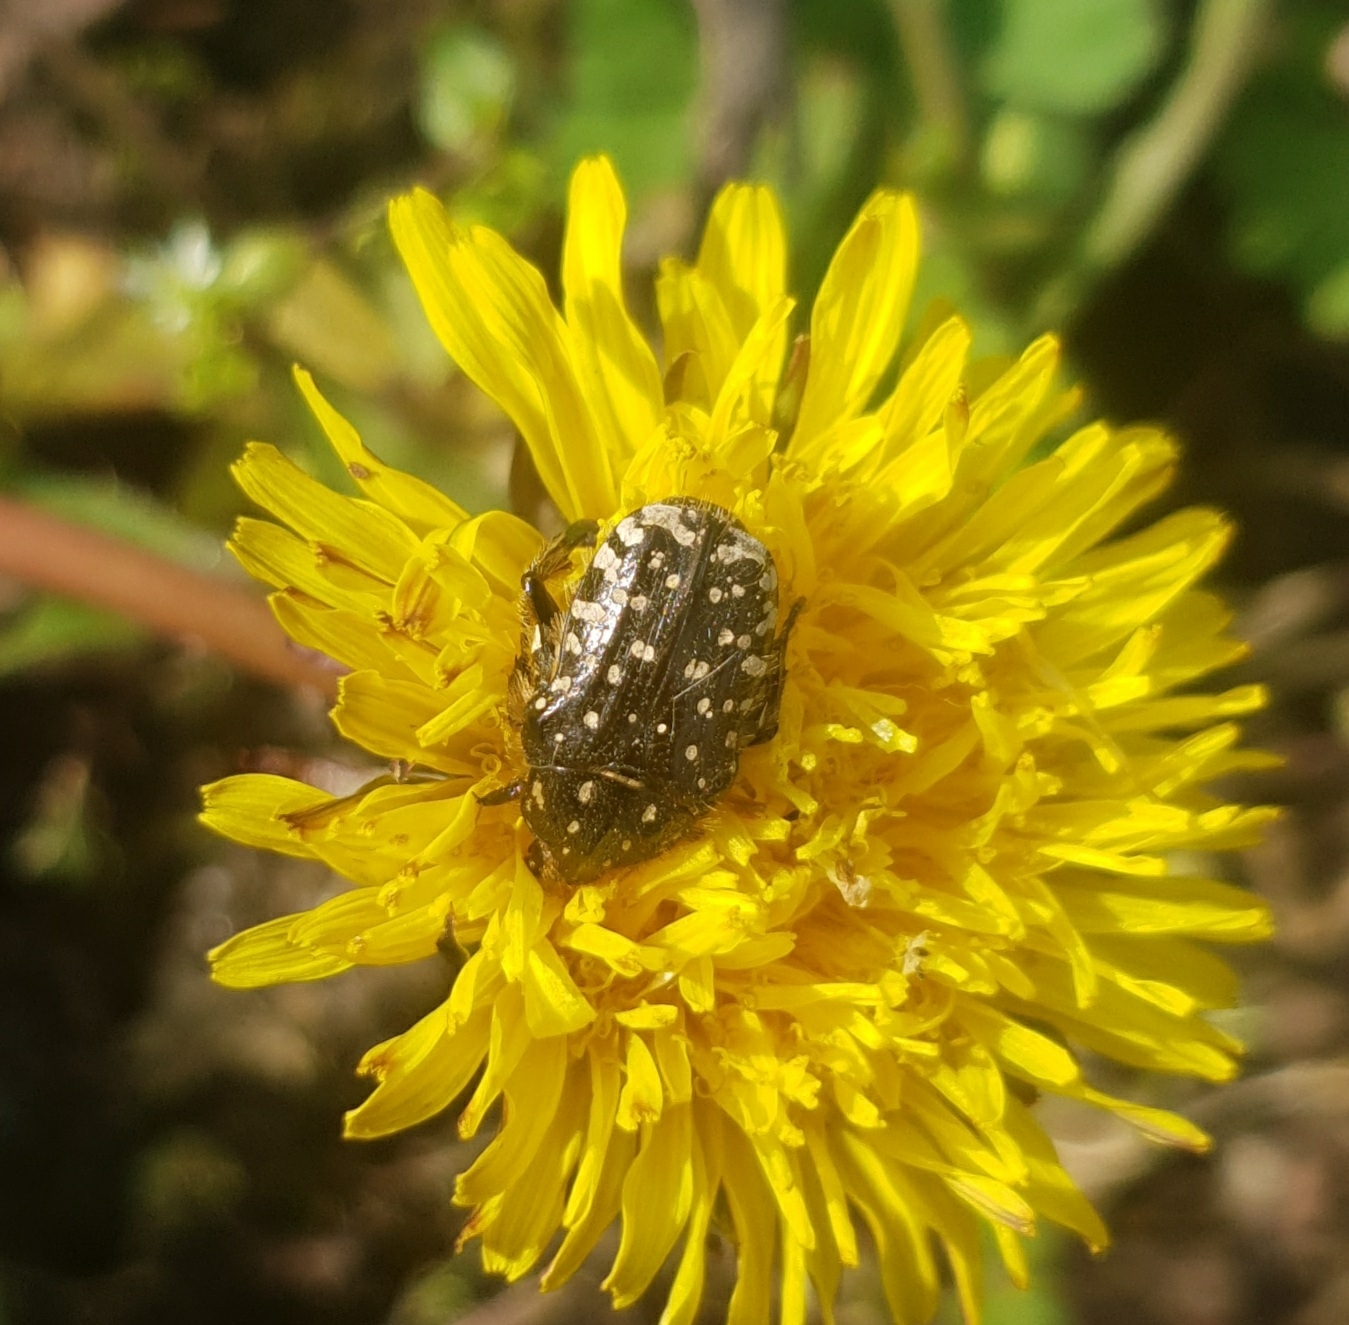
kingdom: Animalia
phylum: Arthropoda
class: Insecta
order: Coleoptera
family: Scarabaeidae
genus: Oxythyrea
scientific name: Oxythyrea funesta
